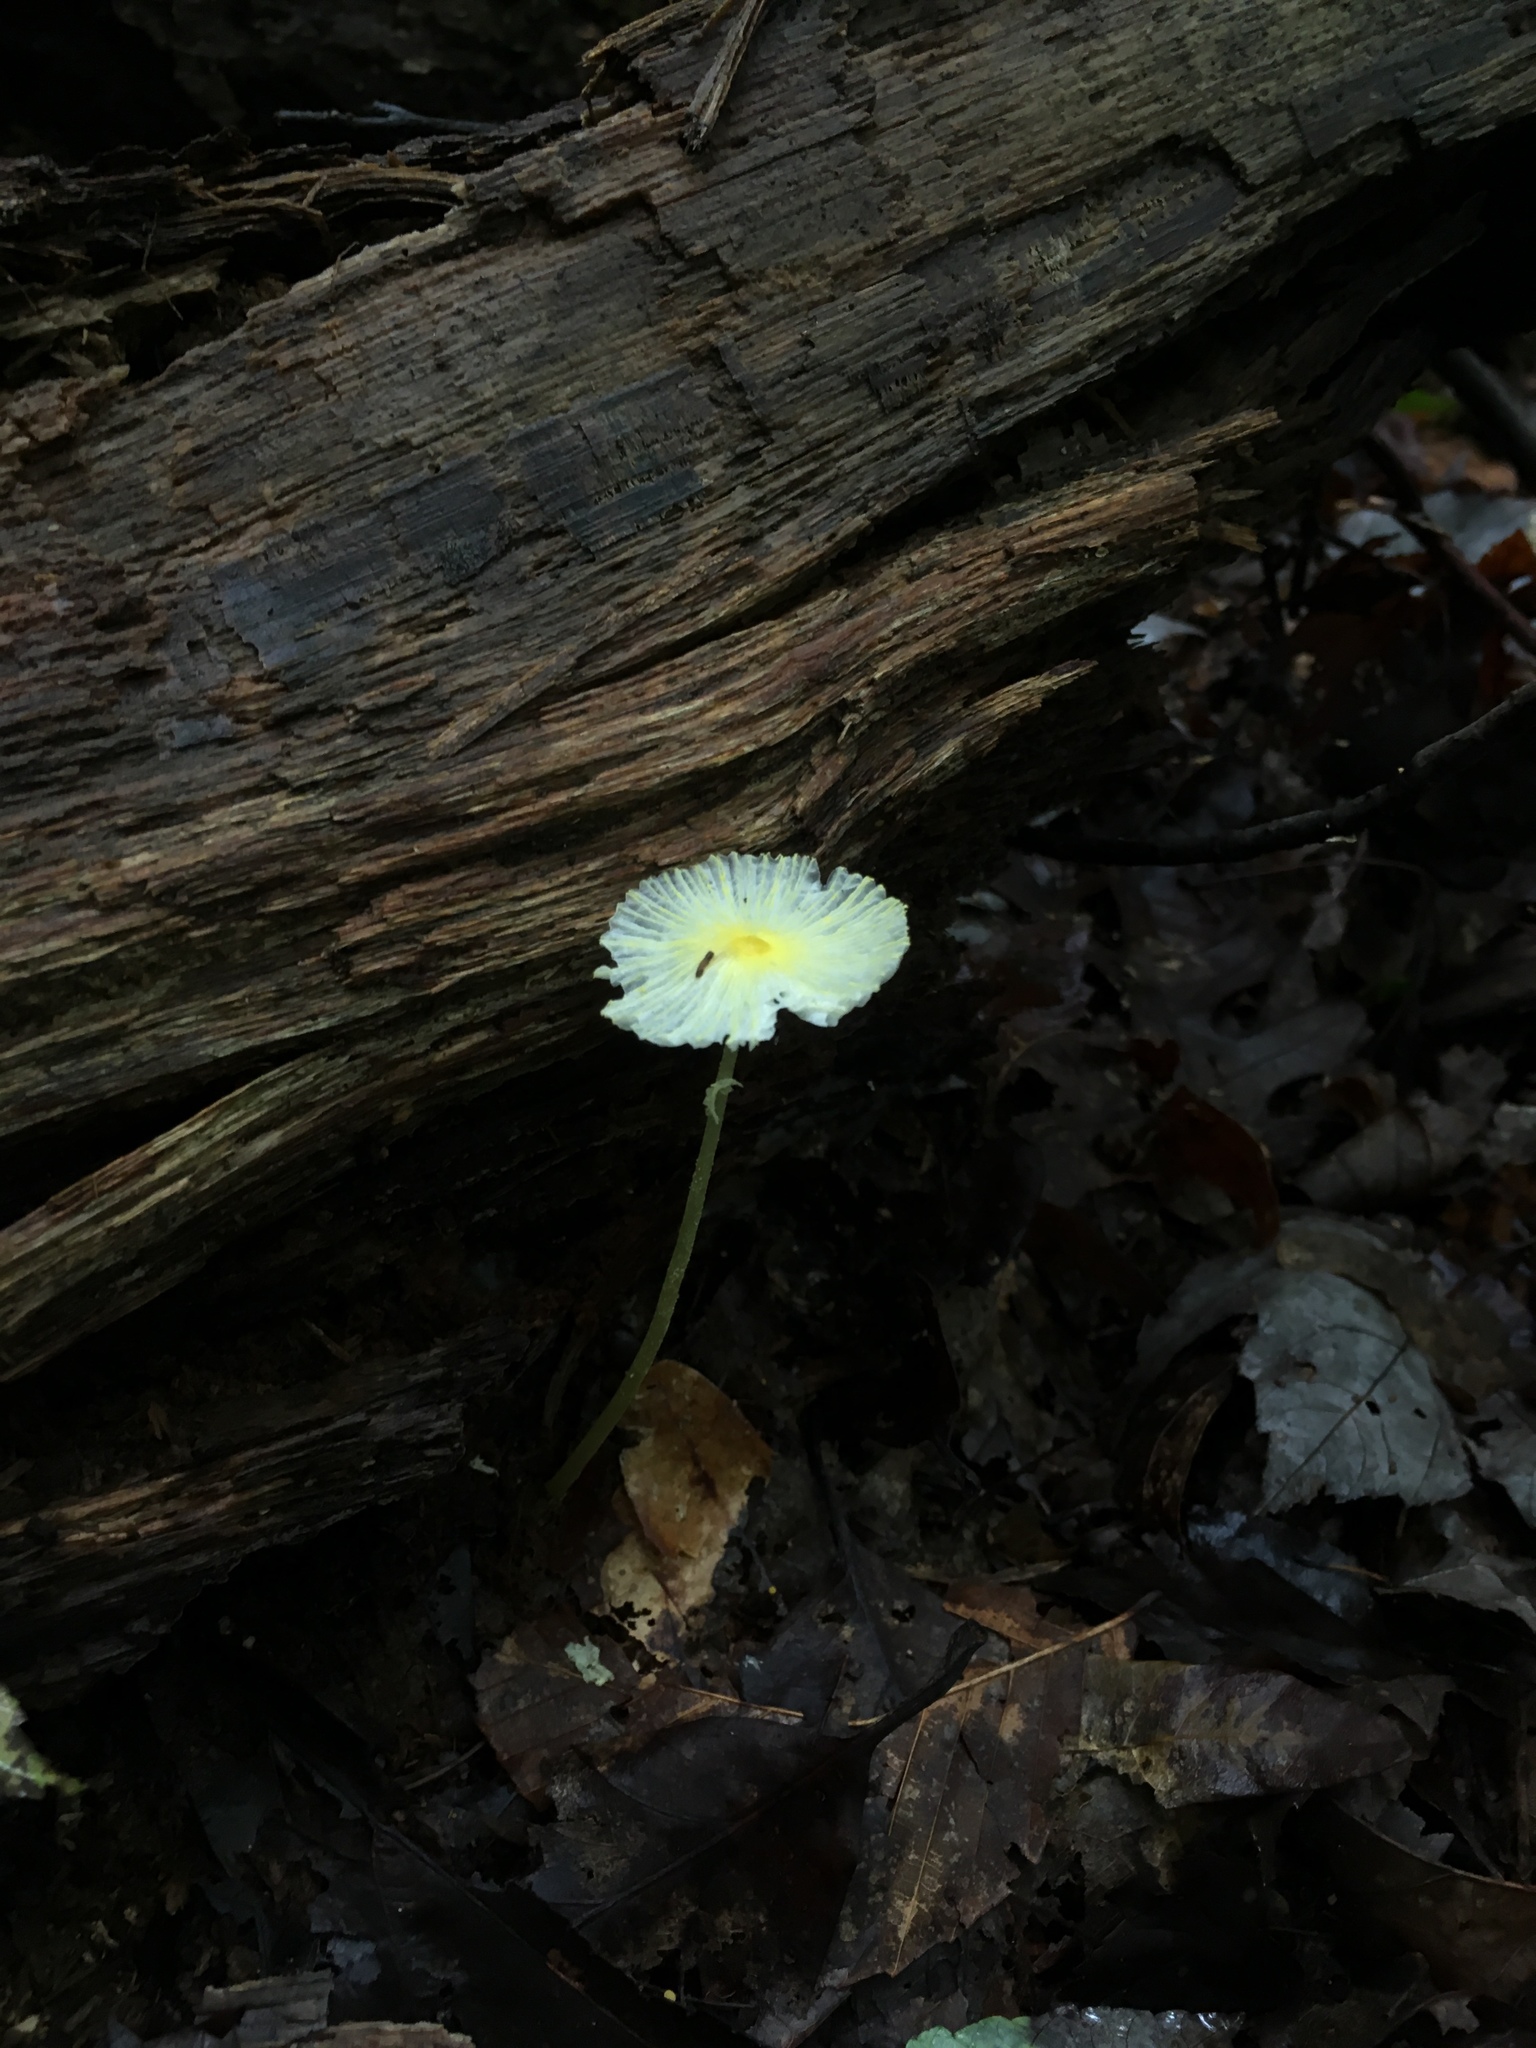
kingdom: Fungi
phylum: Basidiomycota
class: Agaricomycetes
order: Agaricales
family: Agaricaceae
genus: Leucocoprinus
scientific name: Leucocoprinus fragilissimus
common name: Fragile dapperling
